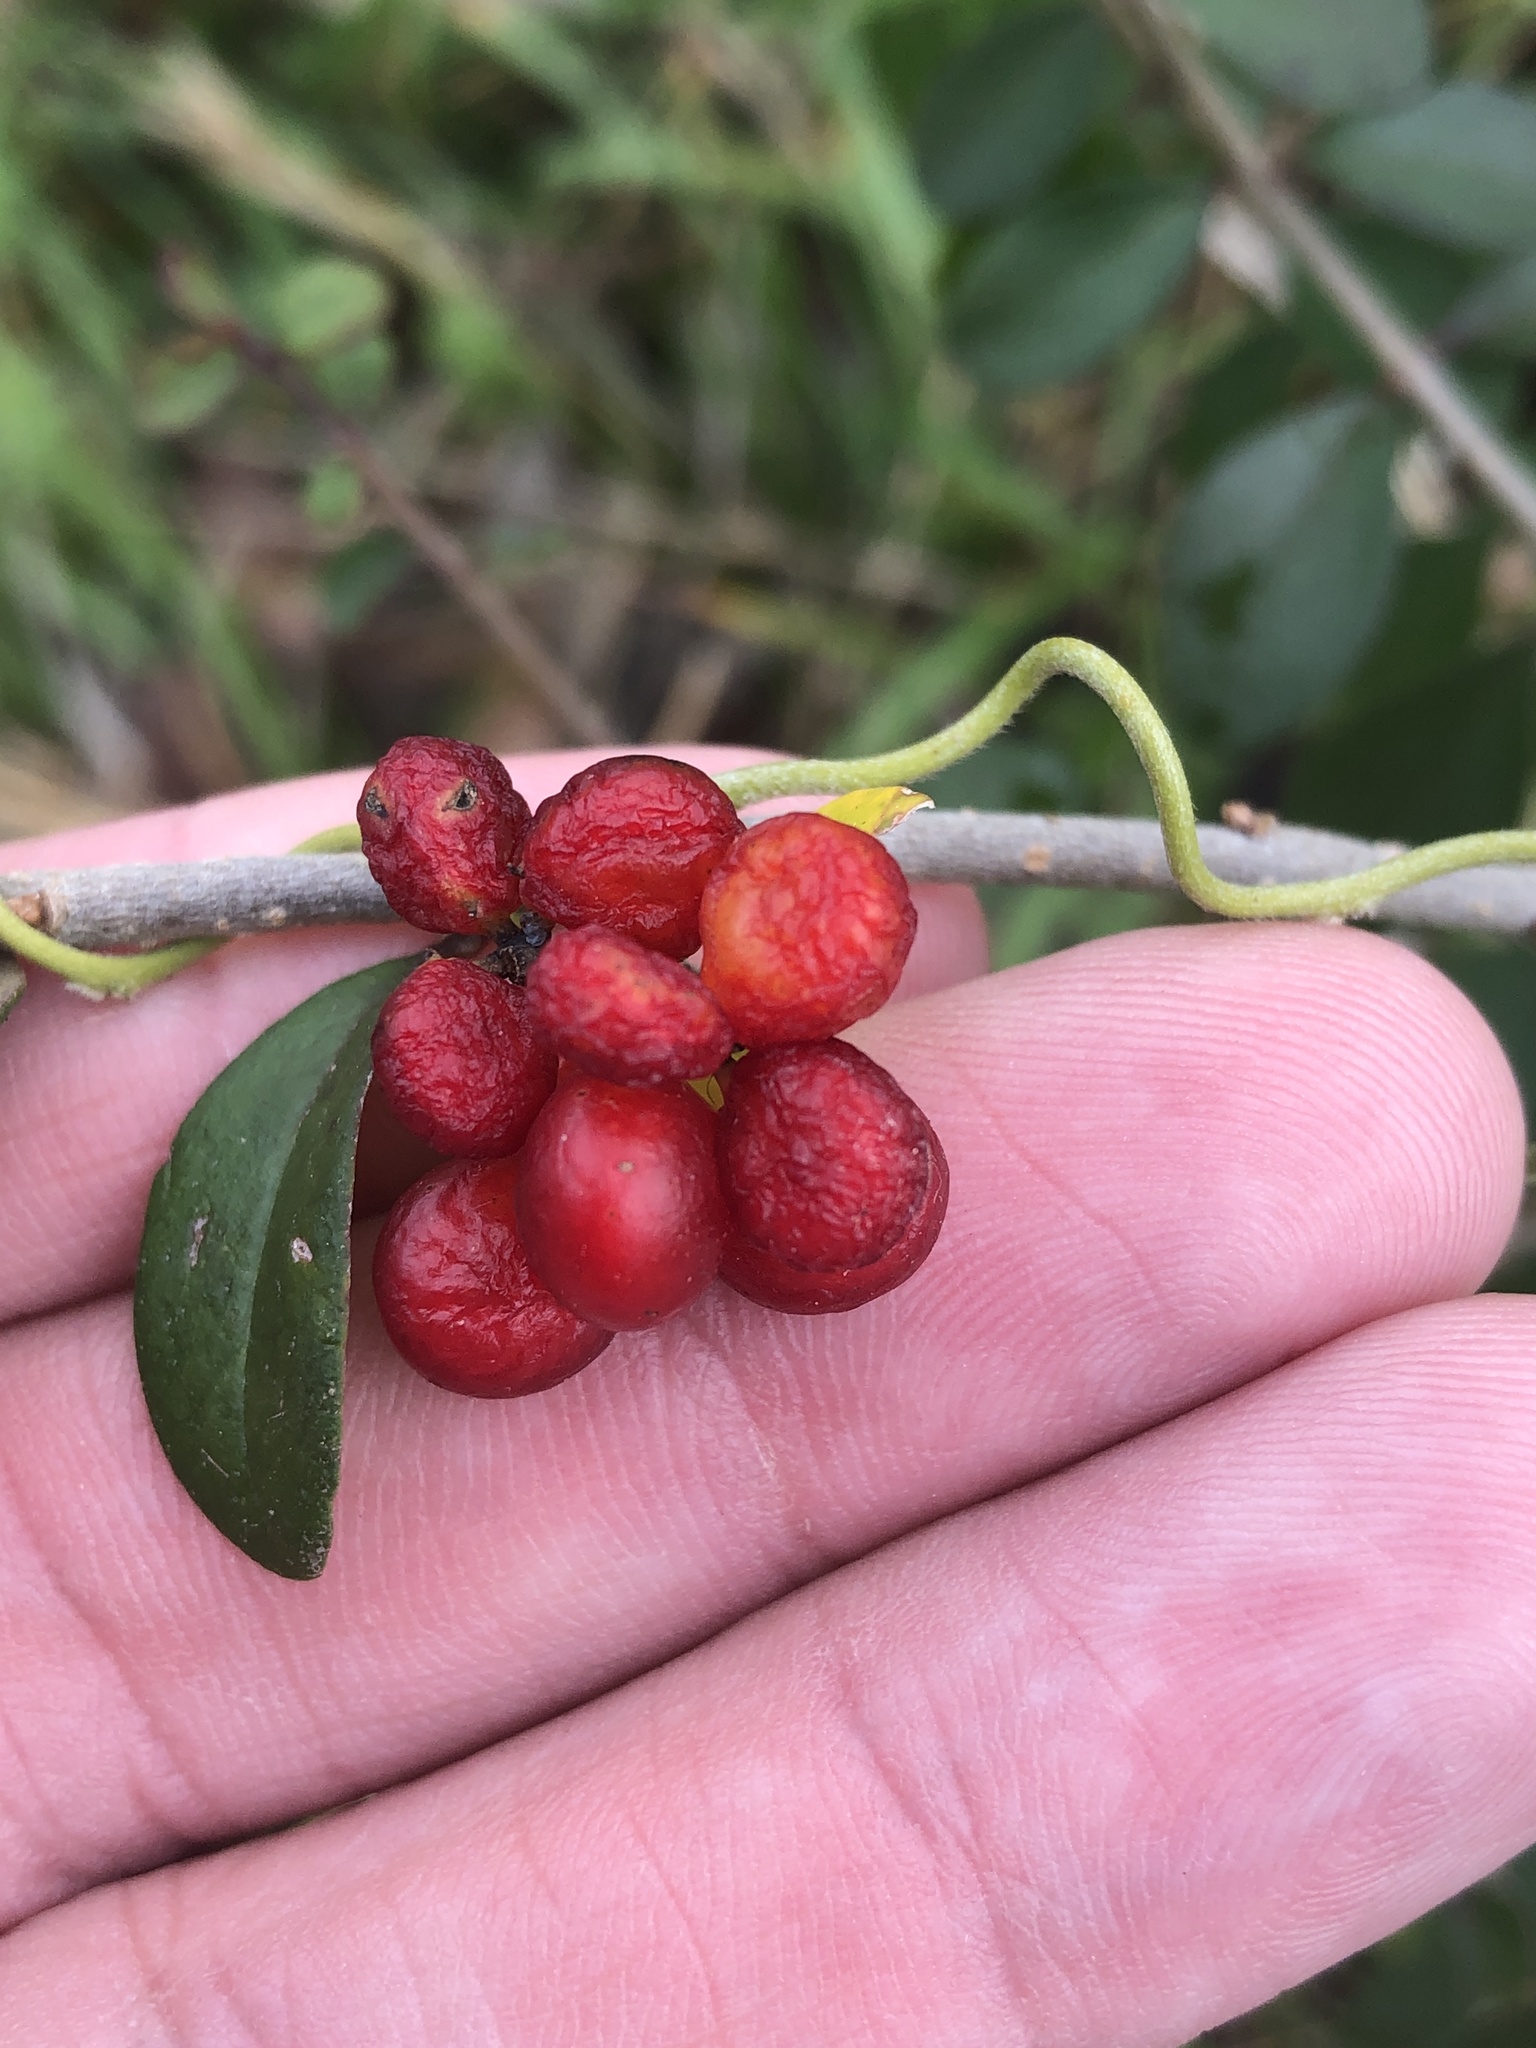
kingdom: Plantae
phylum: Tracheophyta
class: Magnoliopsida
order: Ranunculales
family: Menispermaceae
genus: Cocculus
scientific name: Cocculus carolinus
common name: Carolina moonseed
